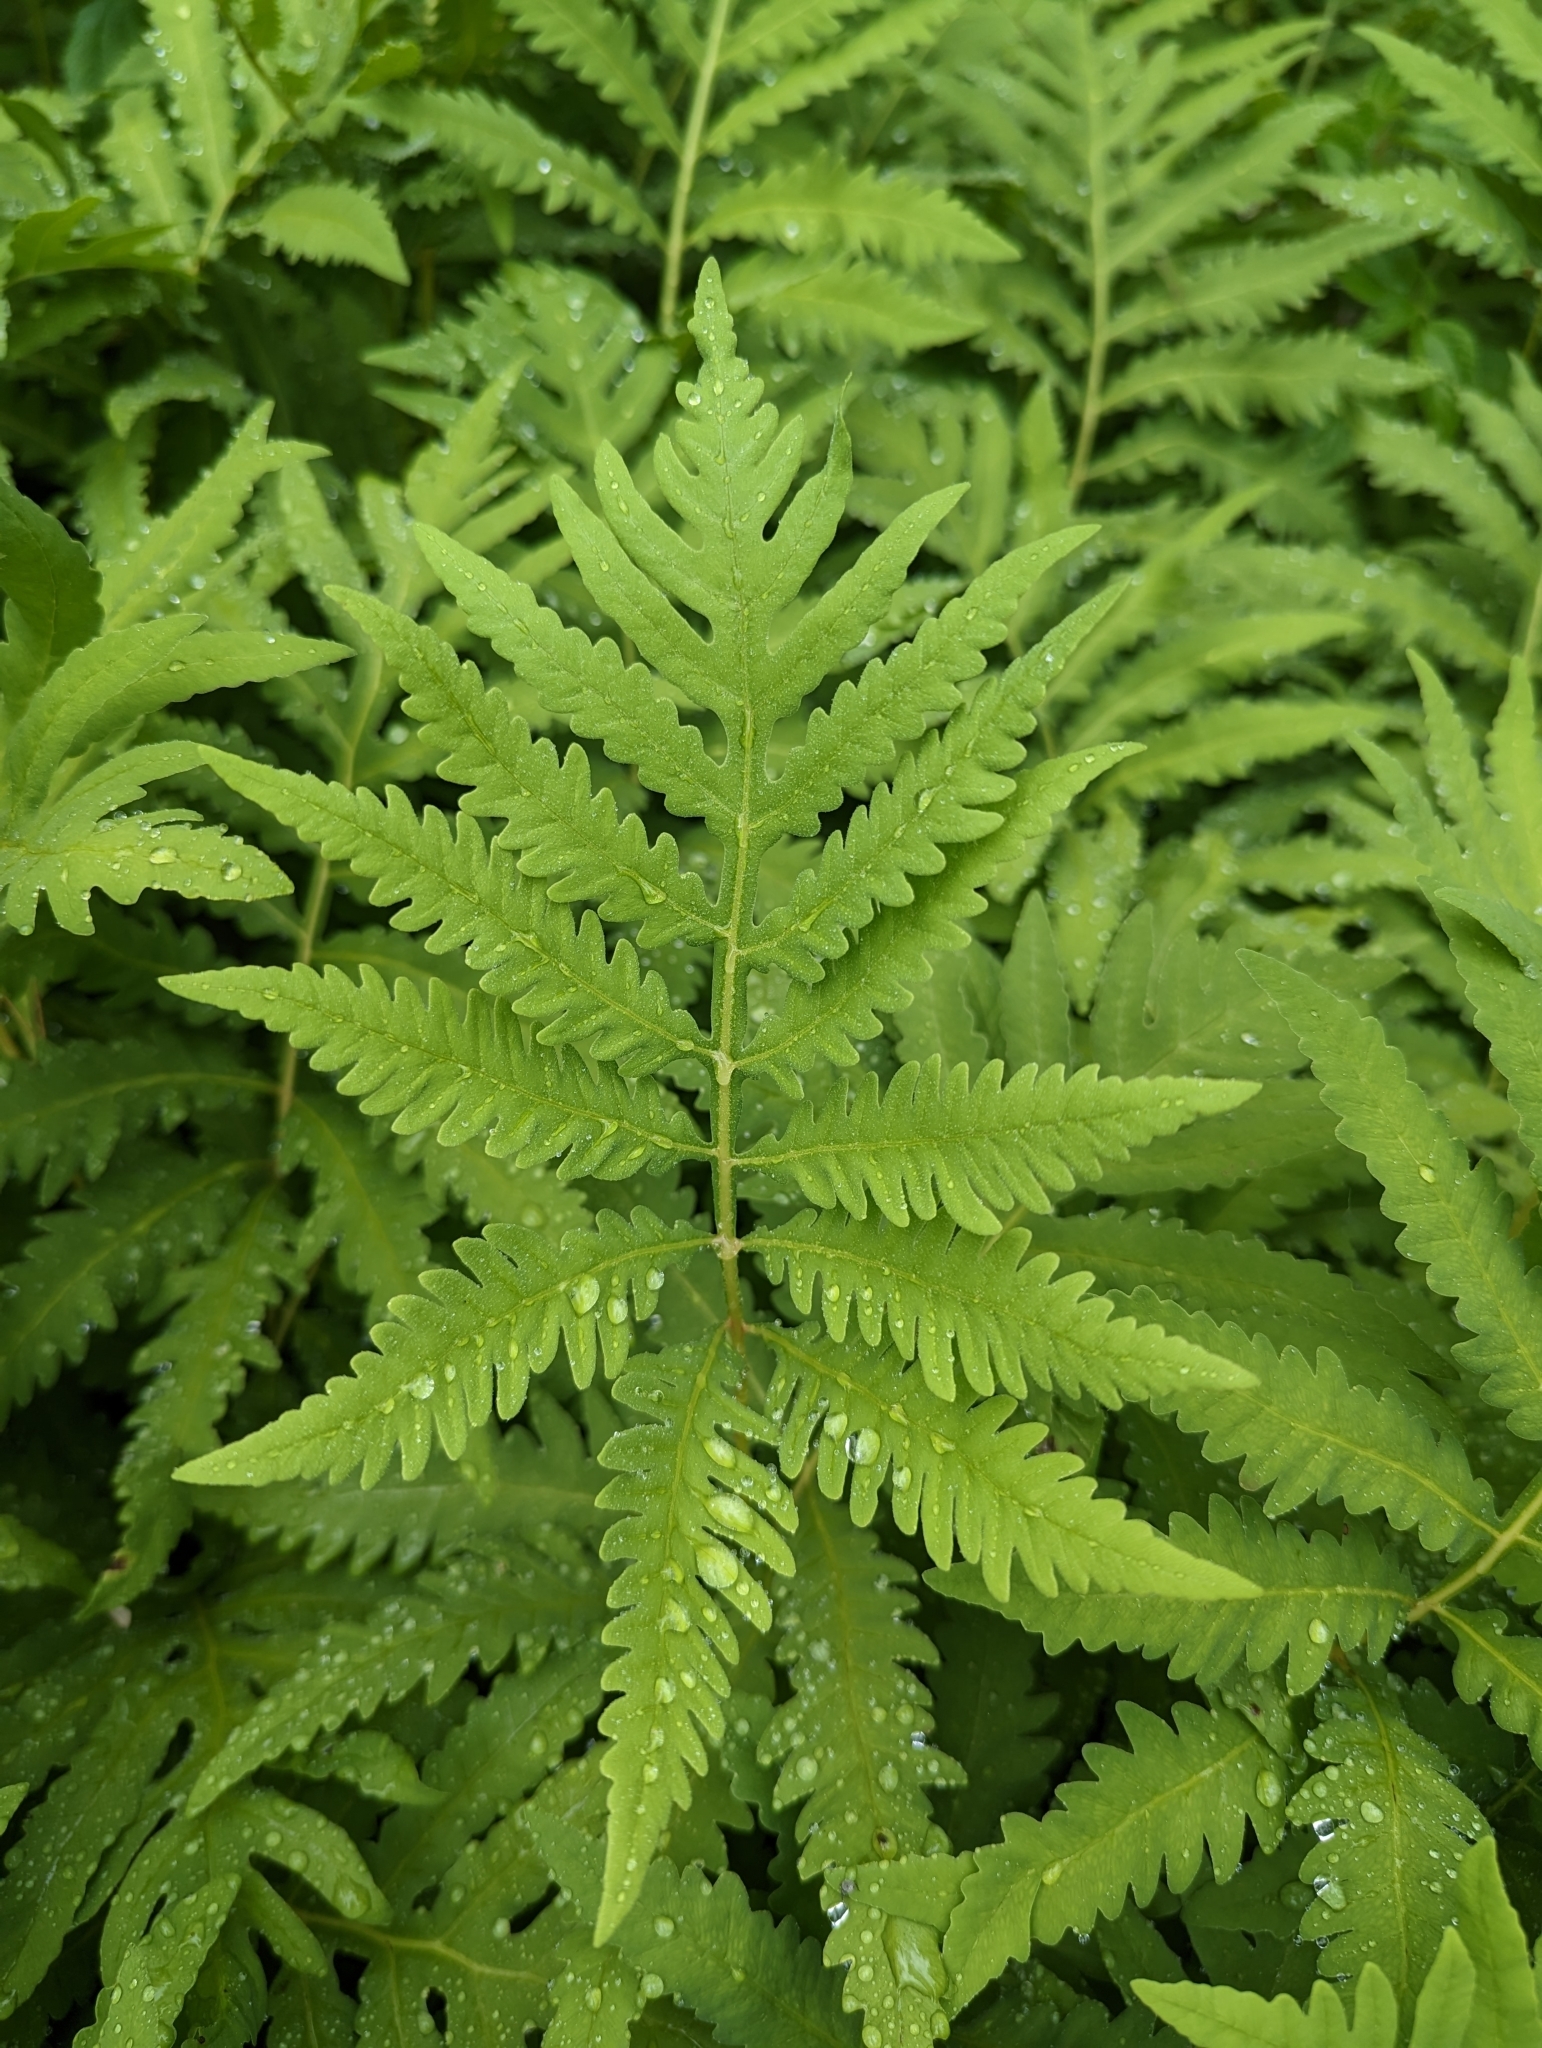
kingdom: Plantae
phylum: Tracheophyta
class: Polypodiopsida
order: Polypodiales
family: Onocleaceae
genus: Onoclea
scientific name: Onoclea sensibilis
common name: Sensitive fern
